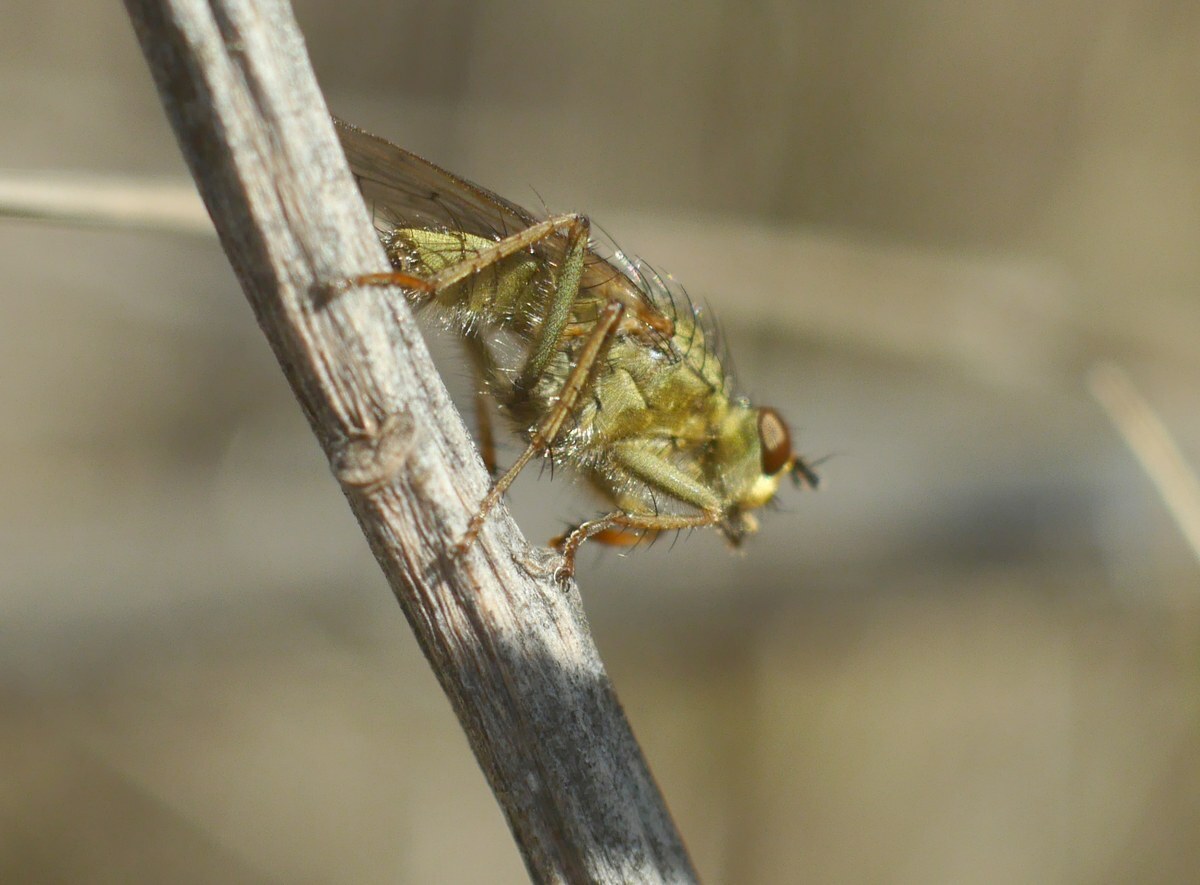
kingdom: Animalia
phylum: Arthropoda
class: Insecta
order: Diptera
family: Scathophagidae
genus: Scathophaga
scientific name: Scathophaga stercoraria
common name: Yellow dung fly
